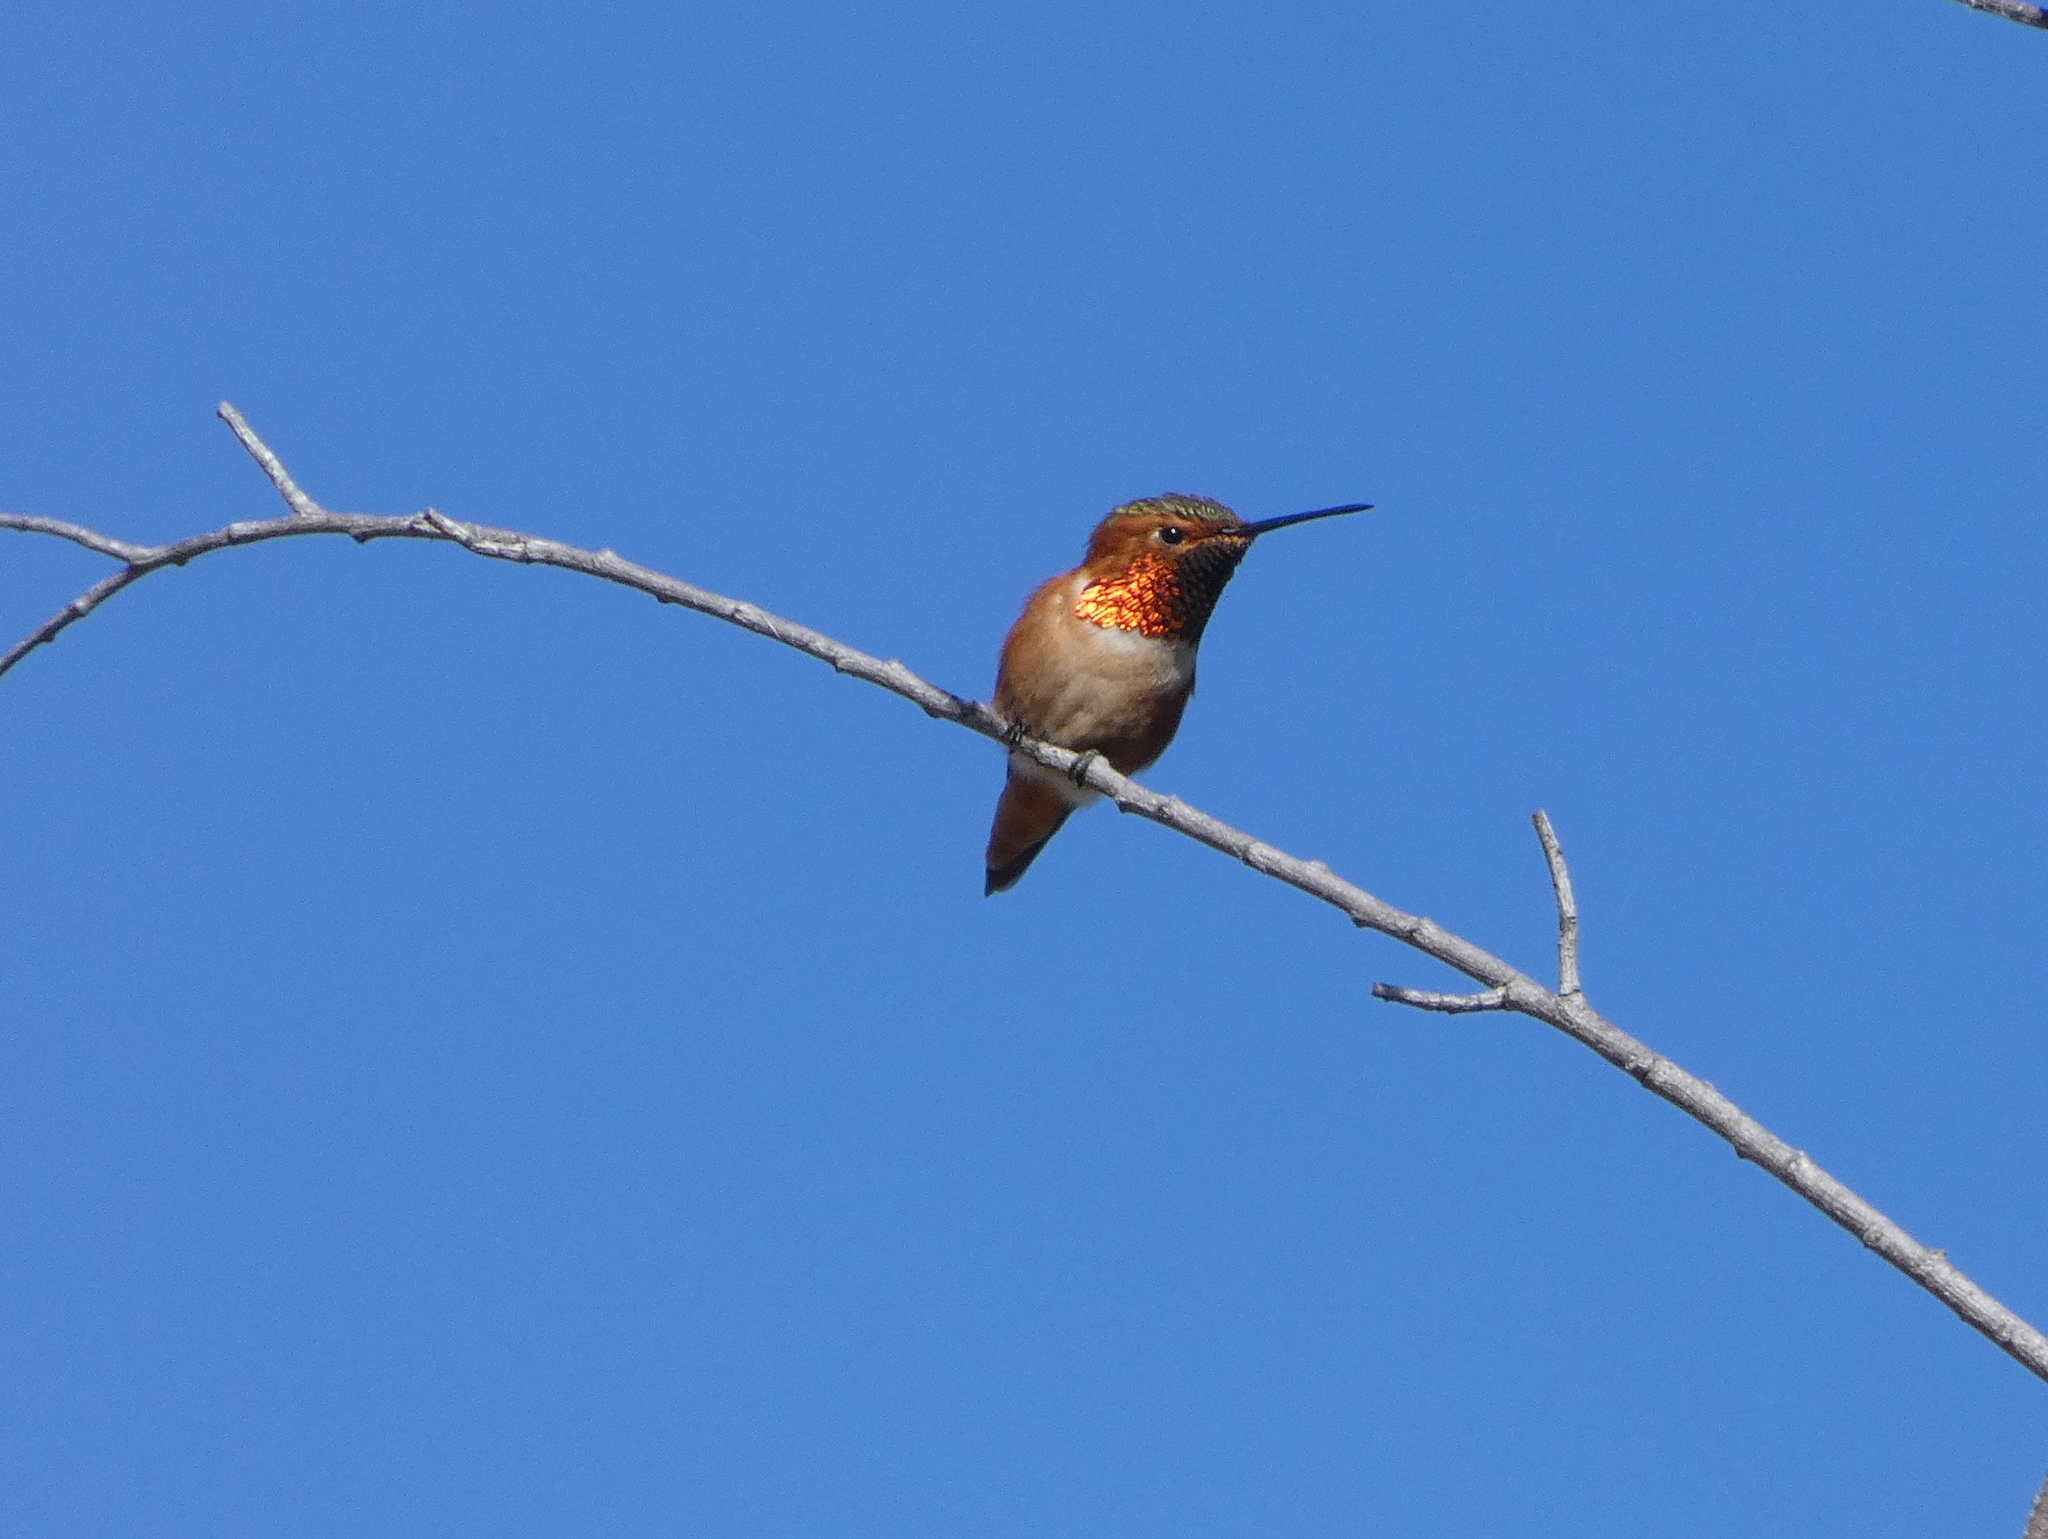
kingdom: Animalia
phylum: Chordata
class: Aves
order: Apodiformes
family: Trochilidae
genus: Selasphorus
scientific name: Selasphorus sasin
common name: Allen's hummingbird
